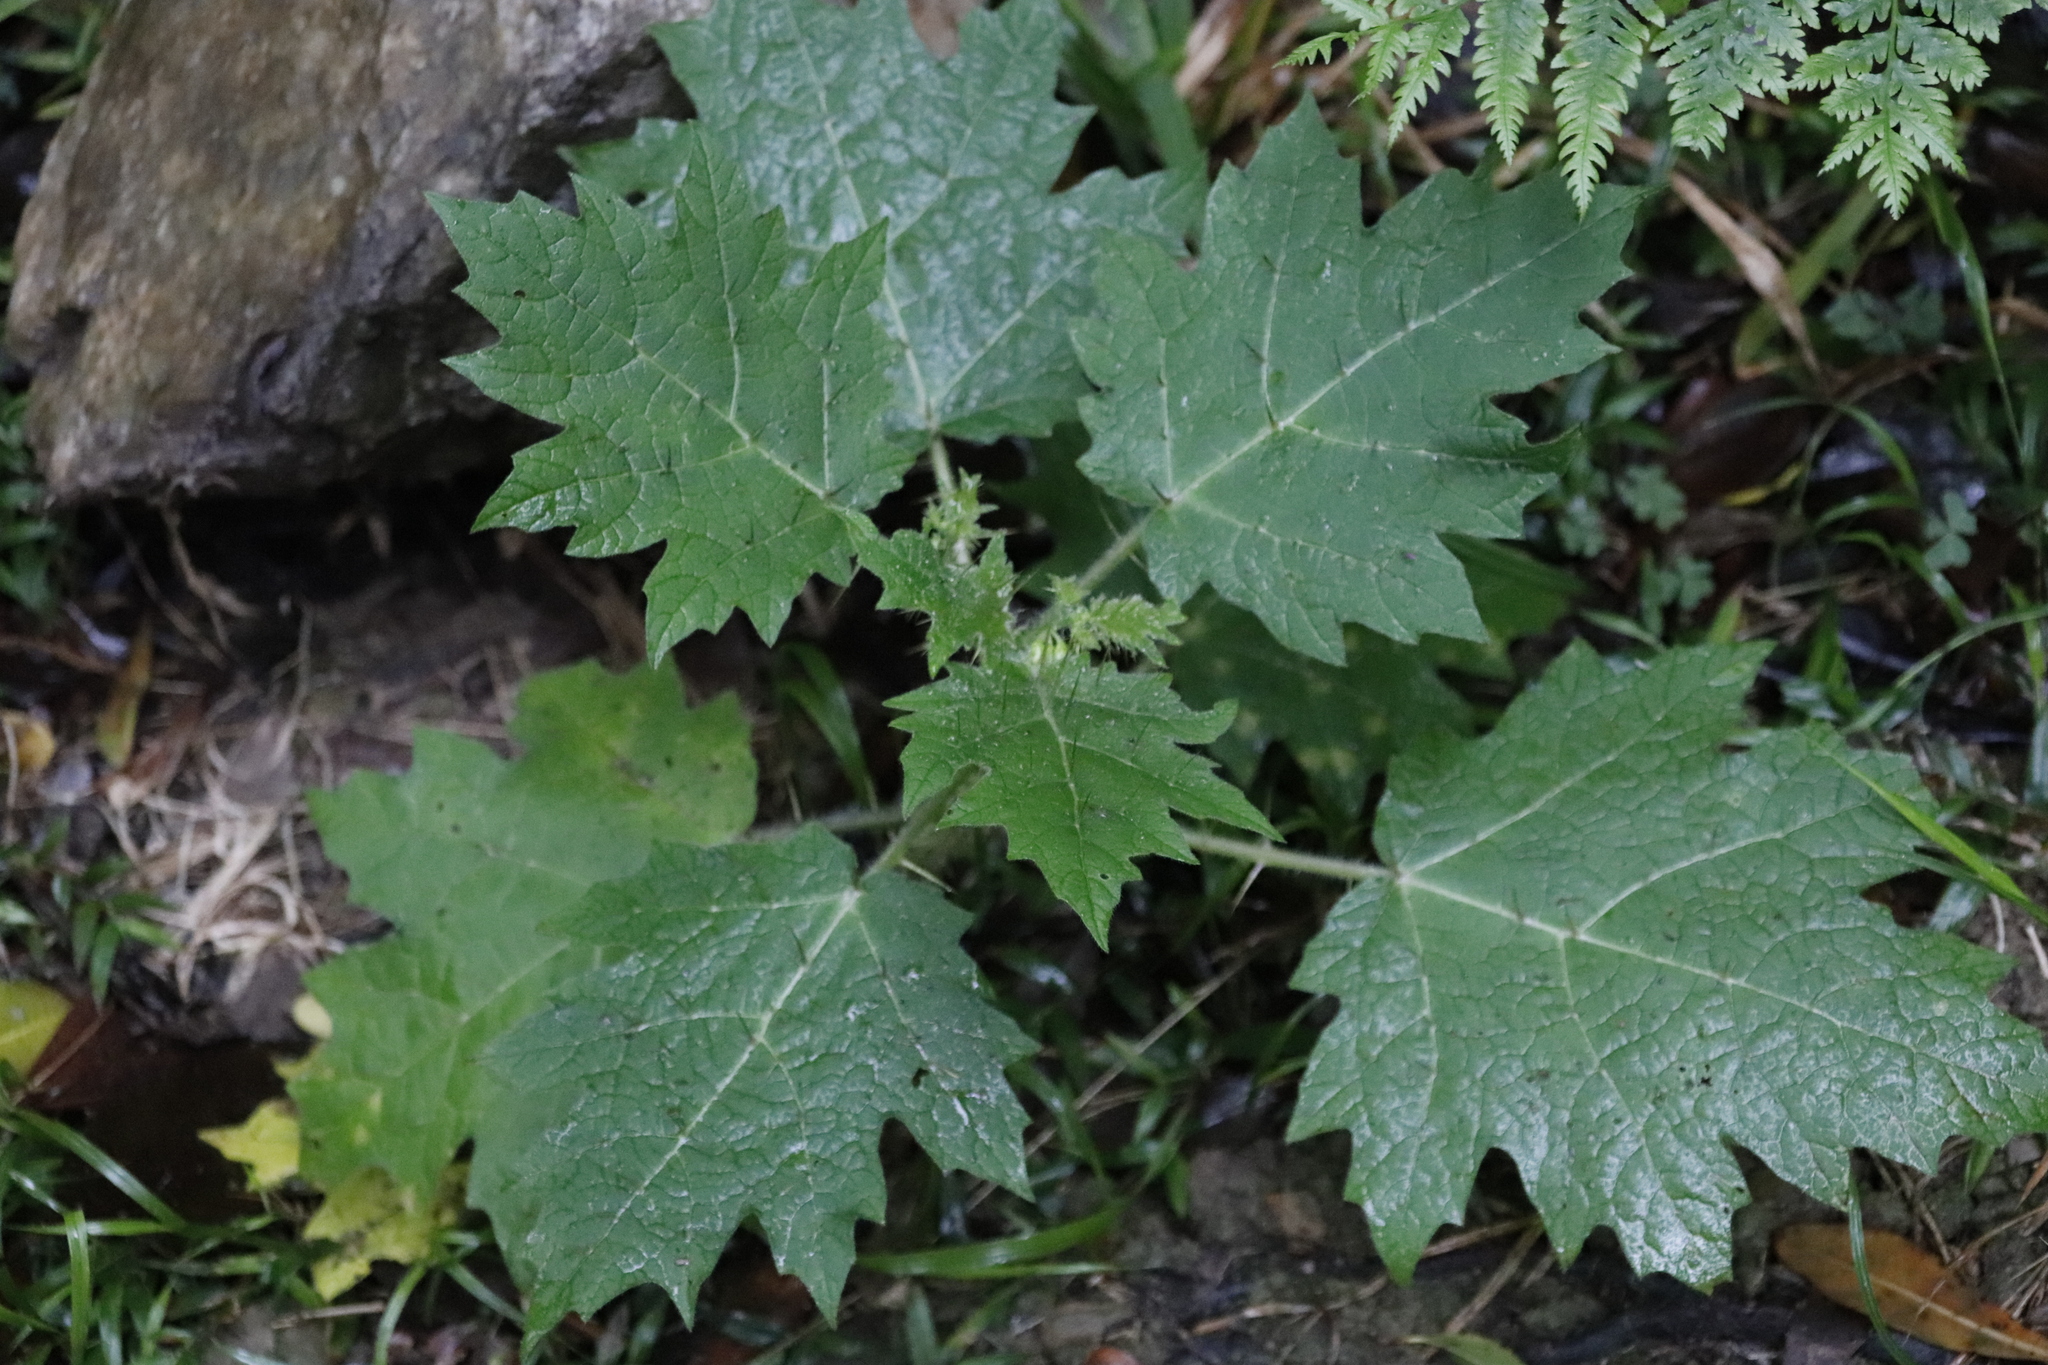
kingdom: Plantae
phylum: Tracheophyta
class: Magnoliopsida
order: Solanales
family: Solanaceae
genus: Solanum
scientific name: Solanum aculeatissimum
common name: Dutch eggplant
